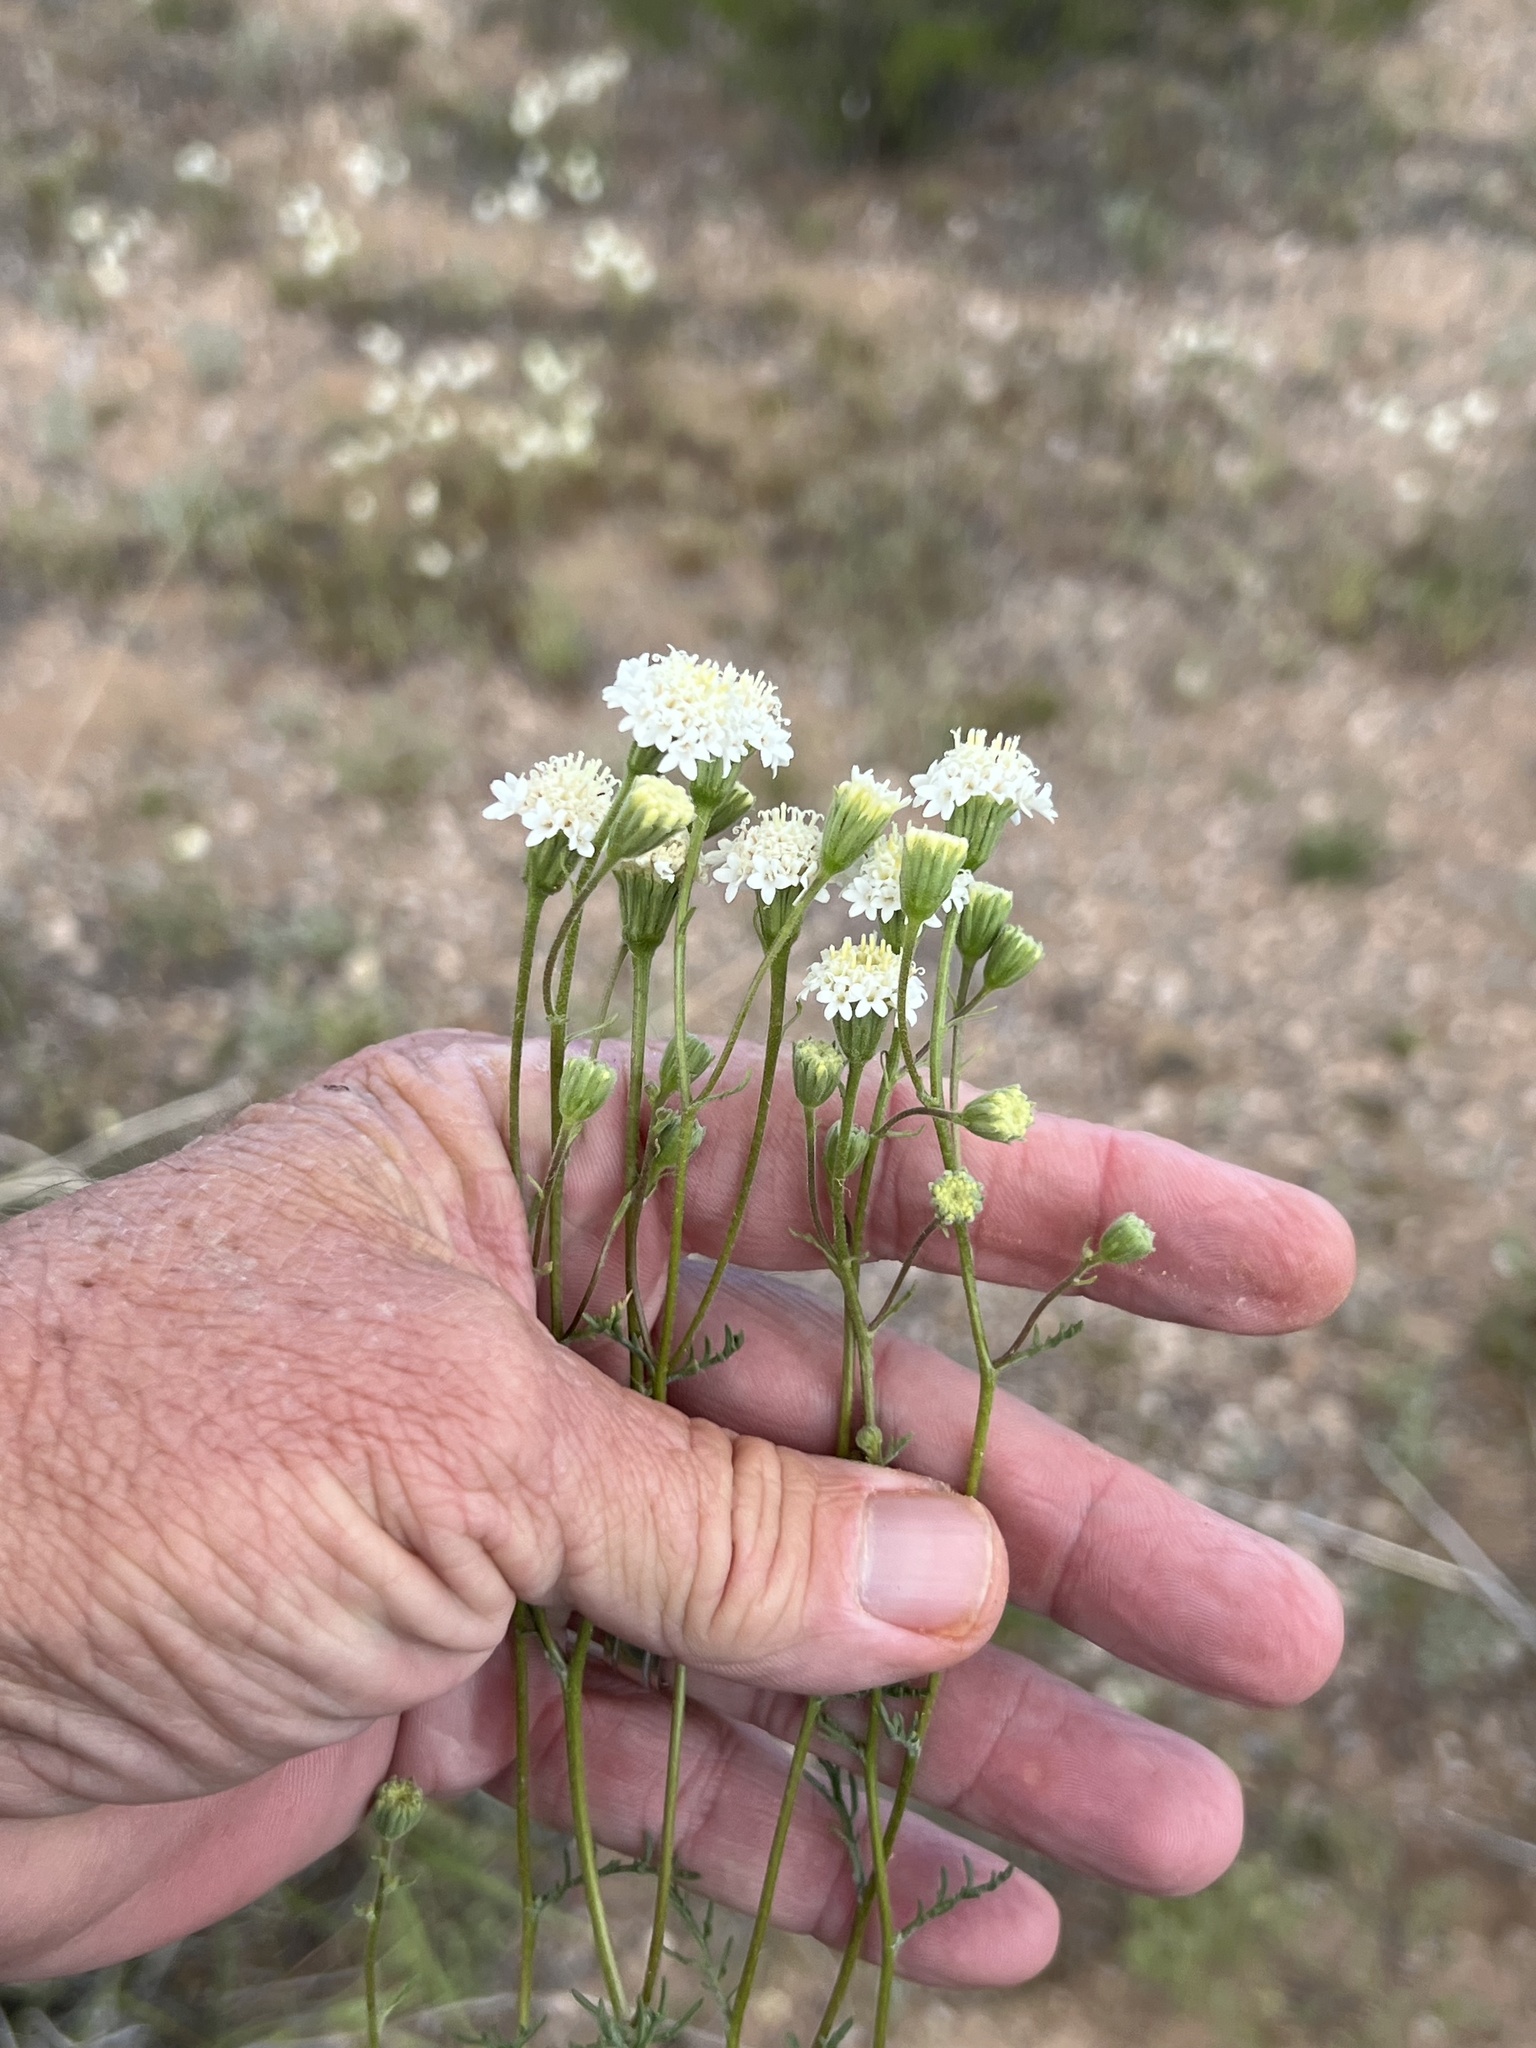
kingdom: Plantae
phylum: Tracheophyta
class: Magnoliopsida
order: Asterales
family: Asteraceae
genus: Chaenactis
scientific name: Chaenactis stevioides
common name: Desert pincushion
